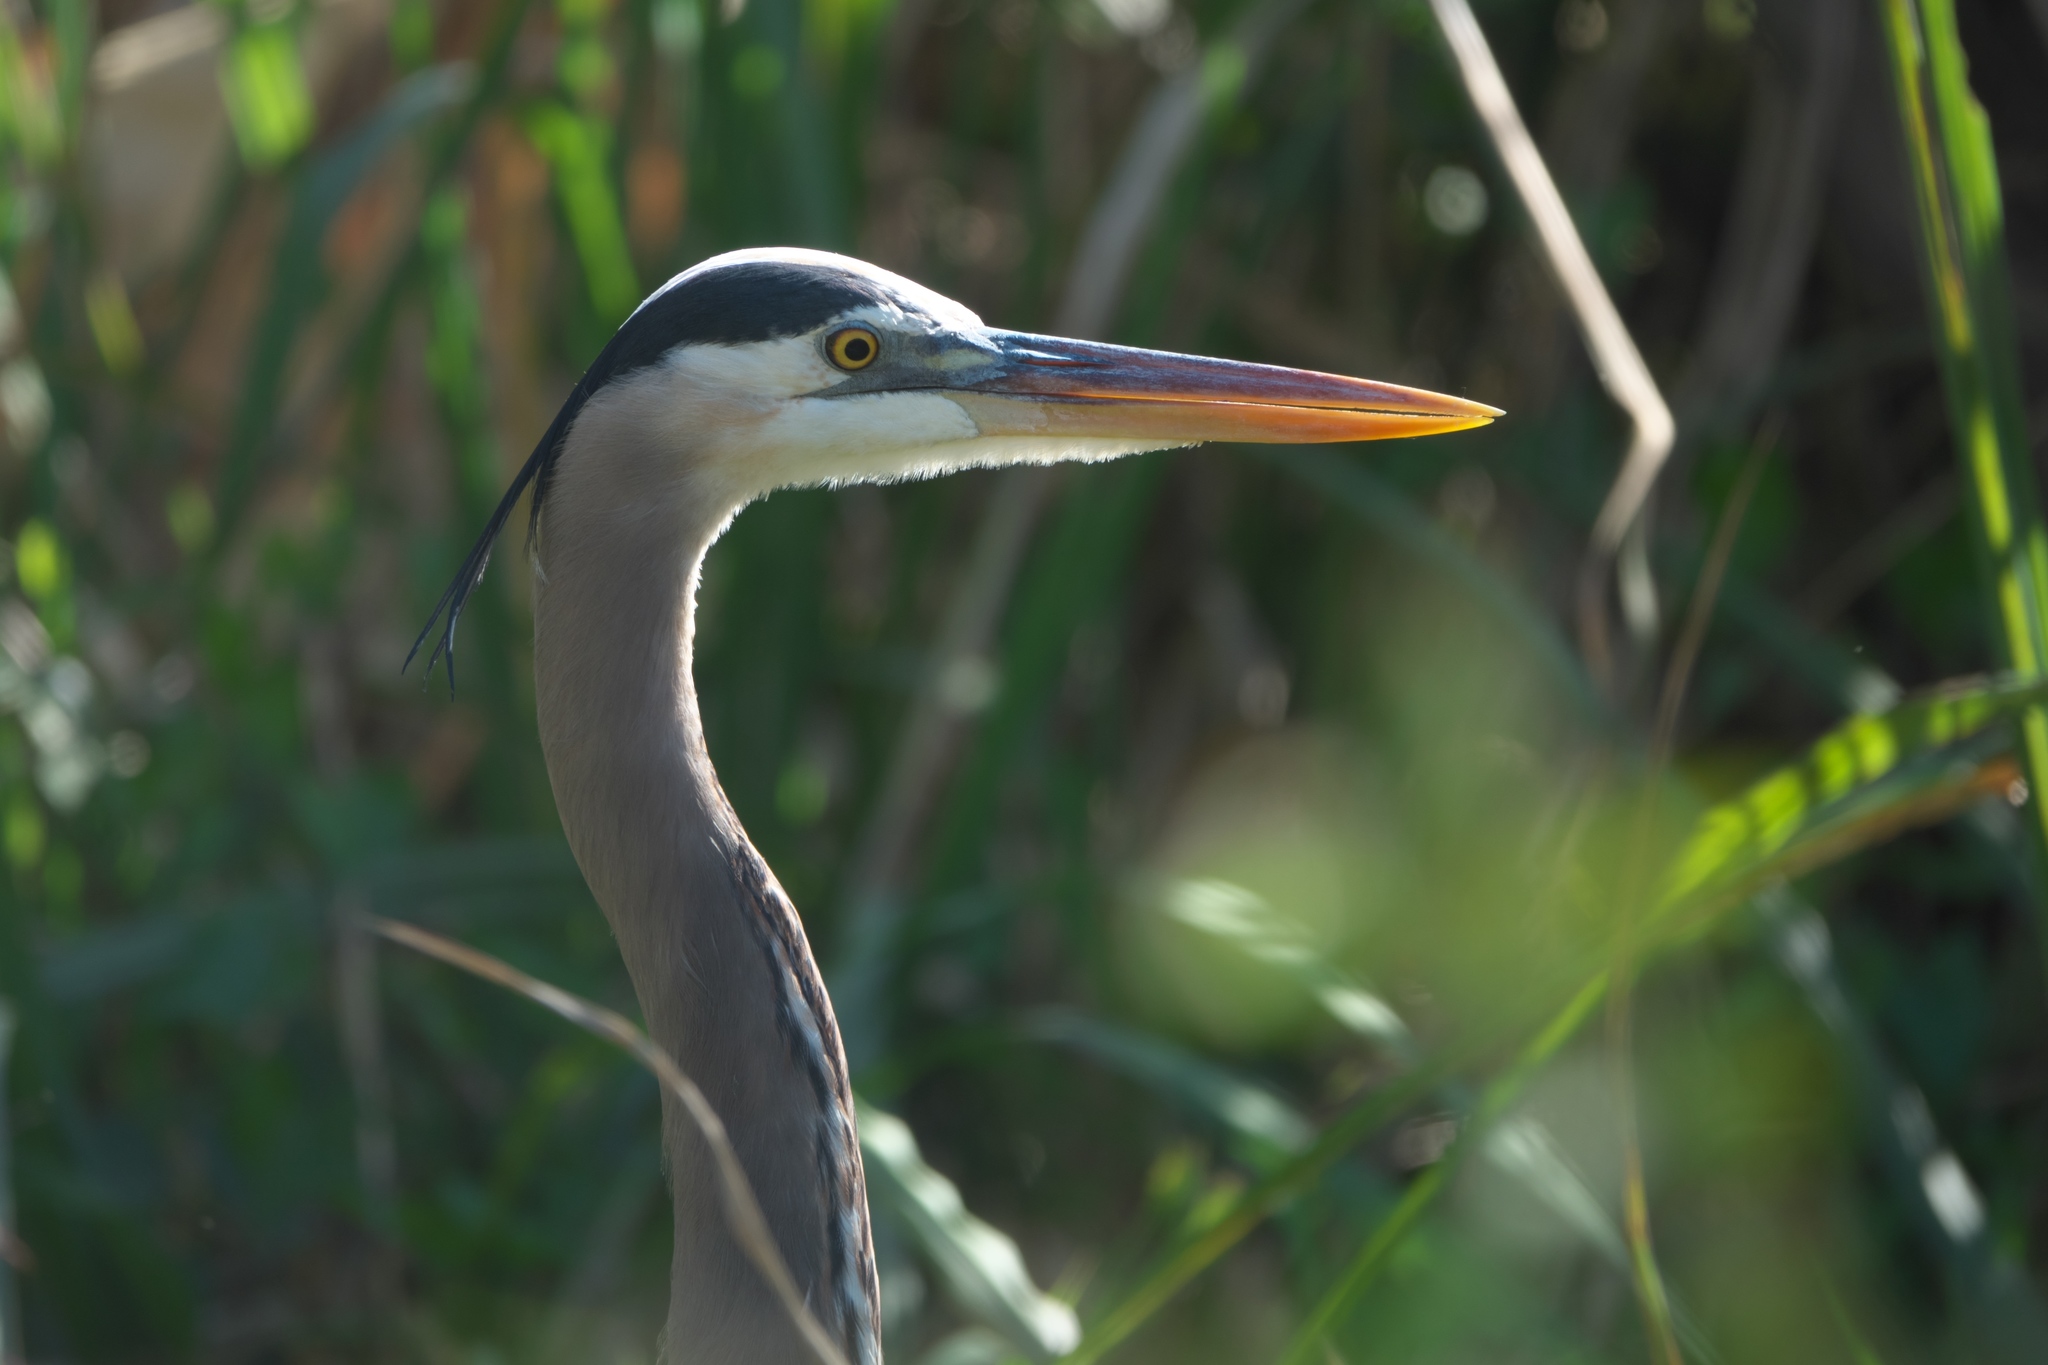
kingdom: Animalia
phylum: Chordata
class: Aves
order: Pelecaniformes
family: Ardeidae
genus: Ardea
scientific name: Ardea herodias
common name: Great blue heron
